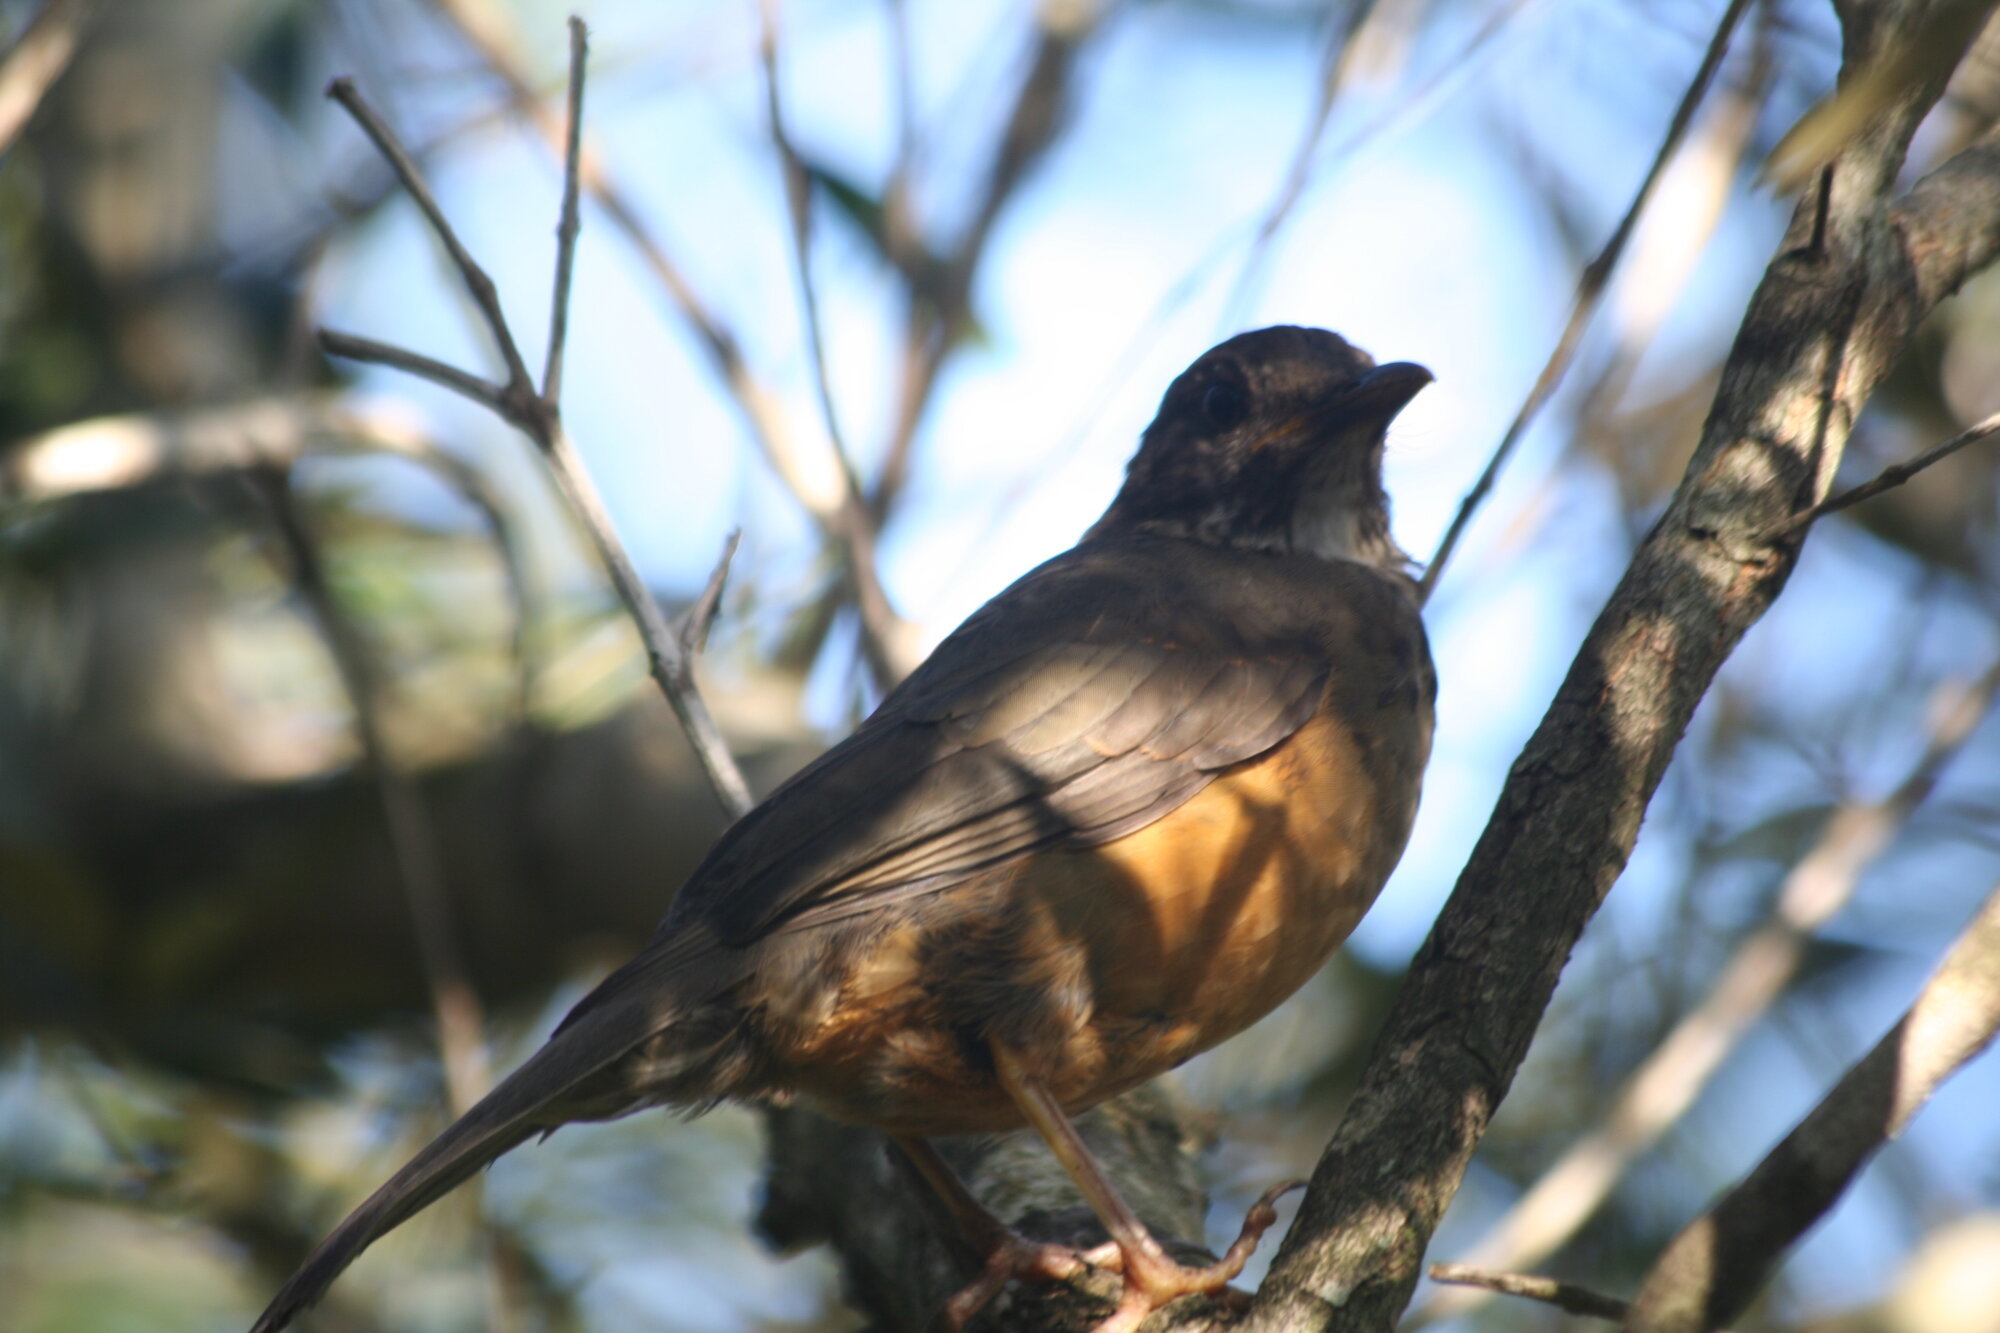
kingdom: Animalia
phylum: Chordata
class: Aves
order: Passeriformes
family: Turdidae
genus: Turdus
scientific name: Turdus olivaceus
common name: Olive thrush
